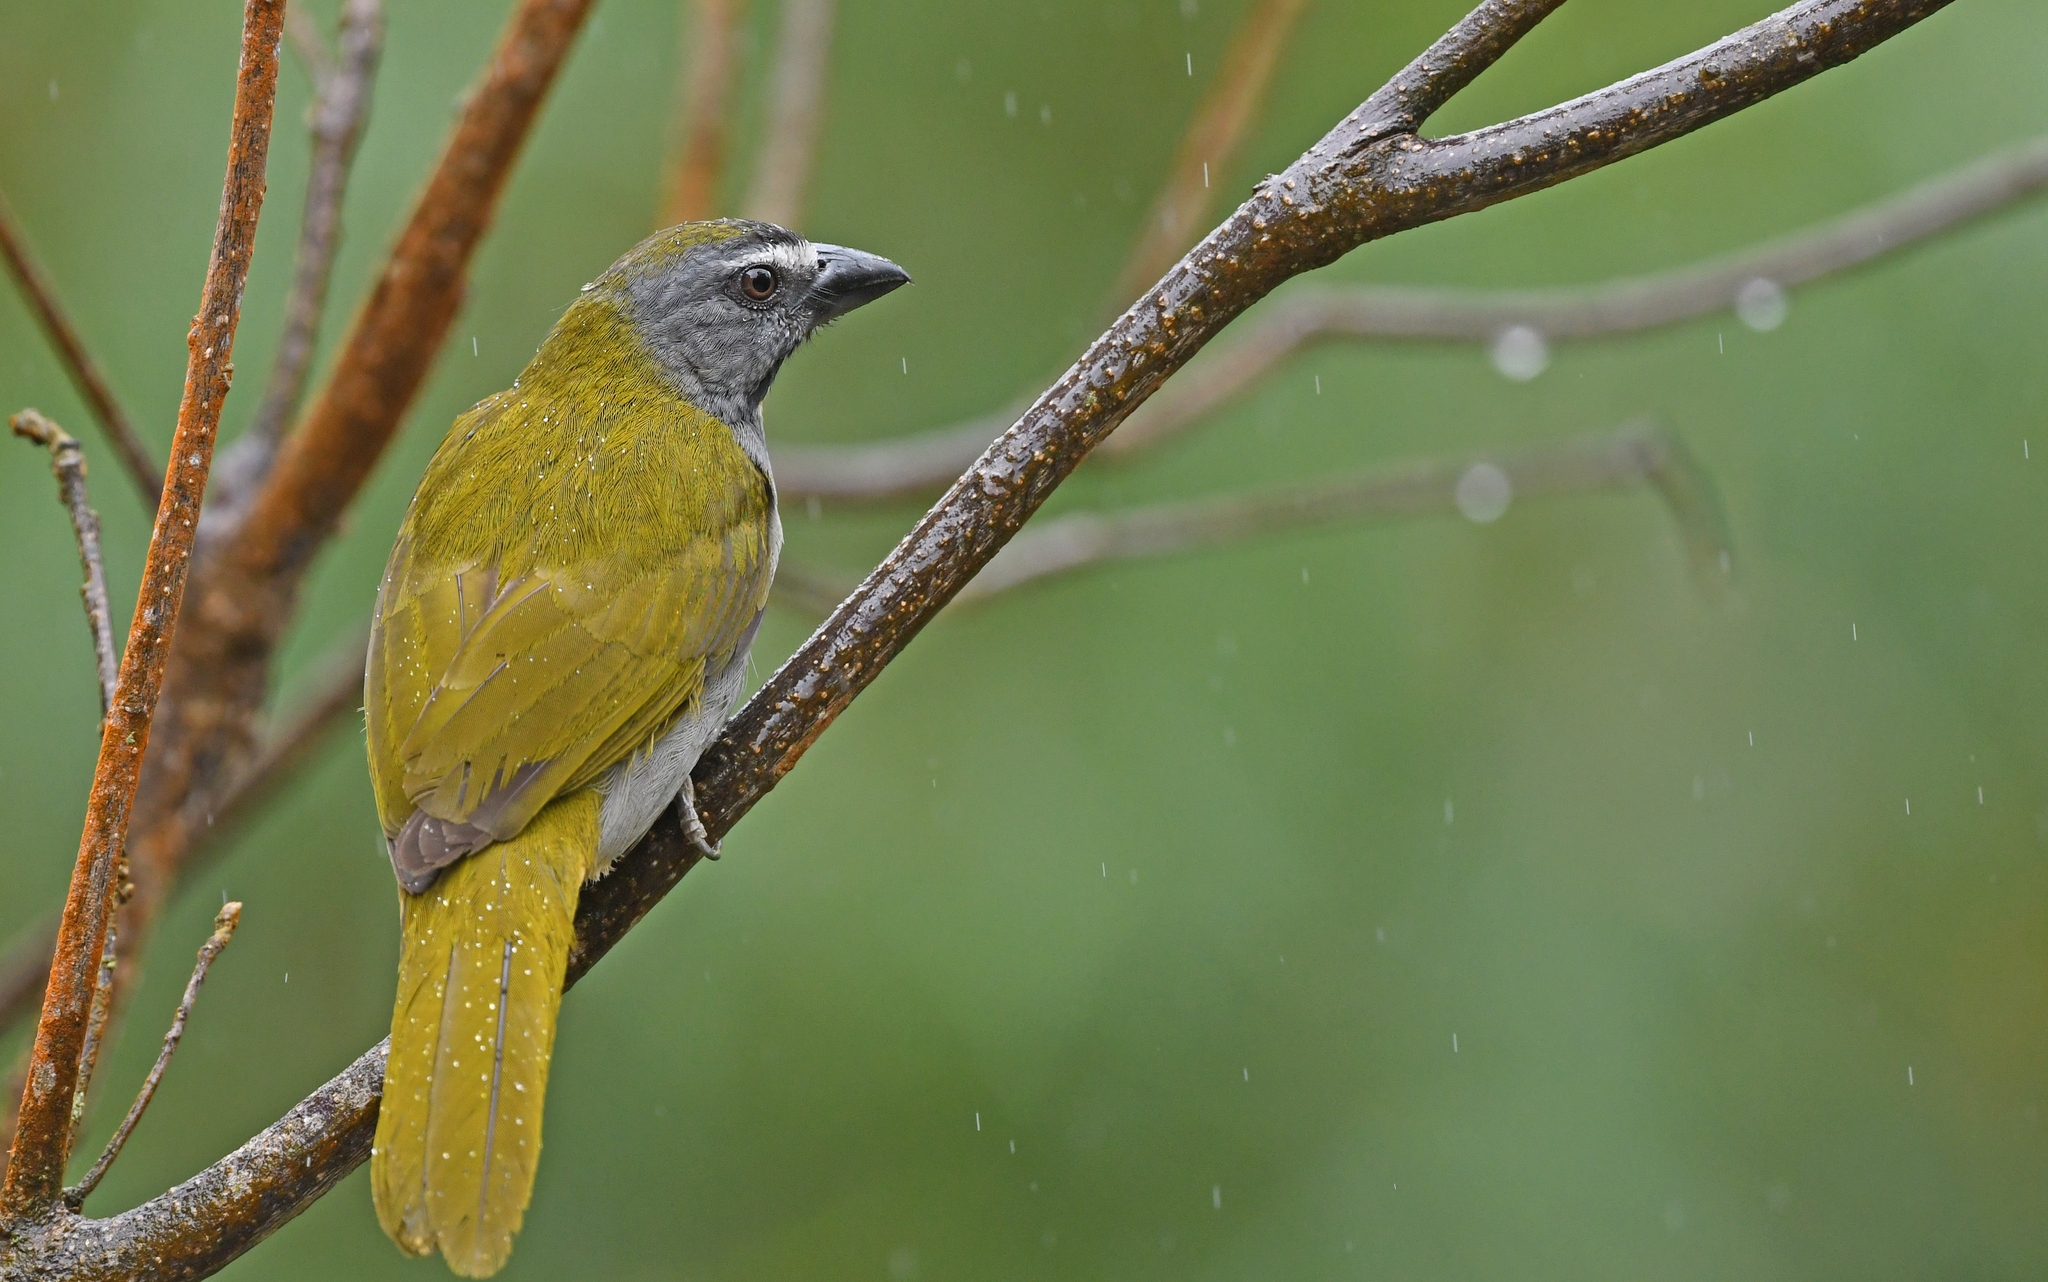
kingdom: Animalia
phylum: Chordata
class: Aves
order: Passeriformes
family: Thraupidae
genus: Saltator
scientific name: Saltator maximus
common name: Buff-throated saltator
